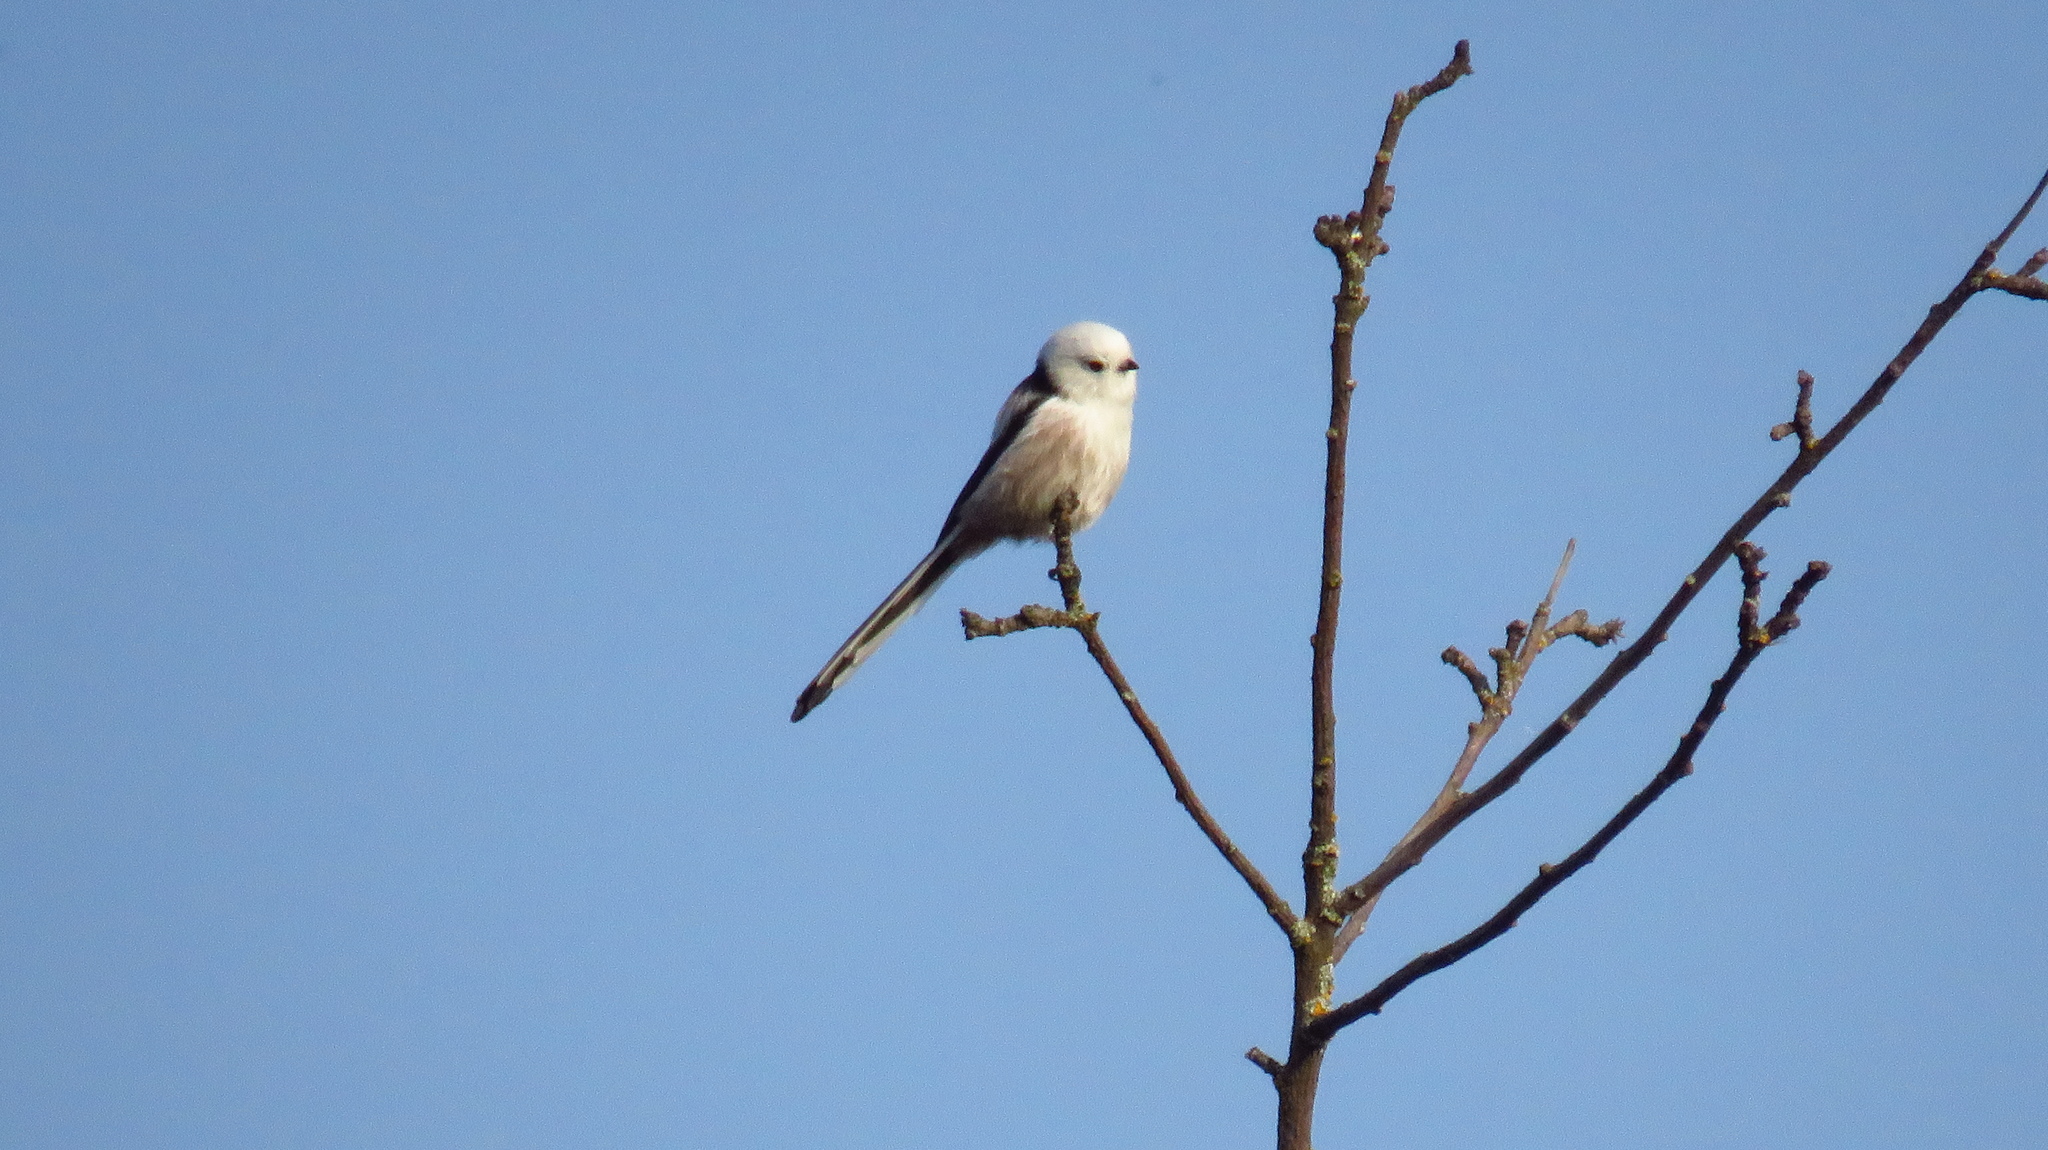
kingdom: Animalia
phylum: Chordata
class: Aves
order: Passeriformes
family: Aegithalidae
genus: Aegithalos
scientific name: Aegithalos caudatus
